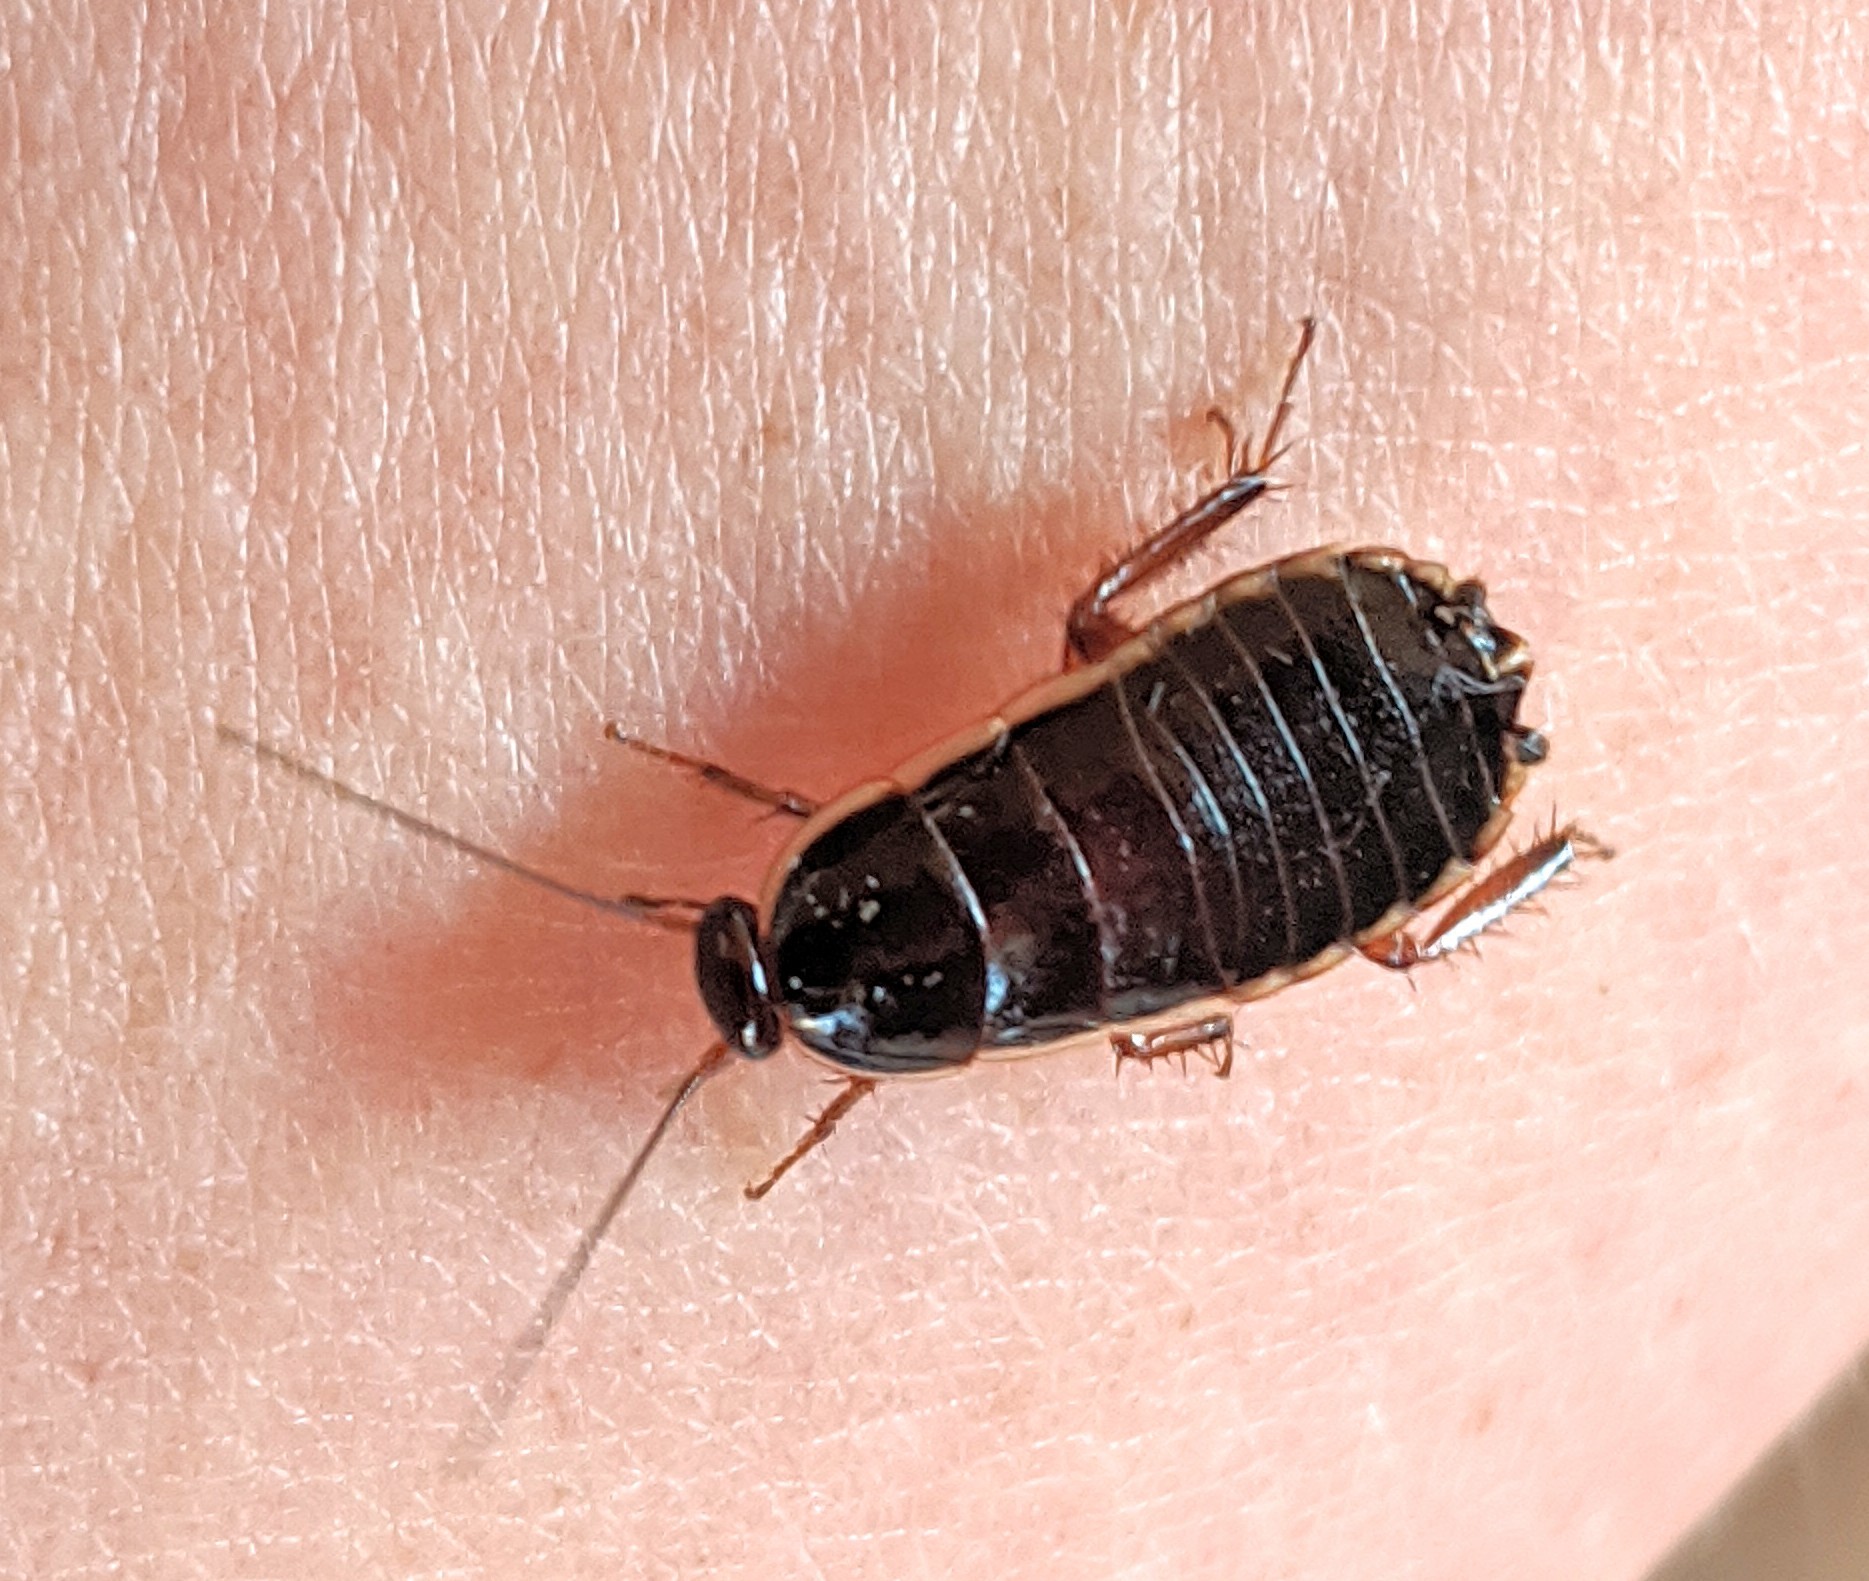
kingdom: Animalia
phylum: Arthropoda
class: Insecta
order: Blattodea
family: Ectobiidae
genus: Loboptera
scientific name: Loboptera decipiens
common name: Lobe-winged cockroach
